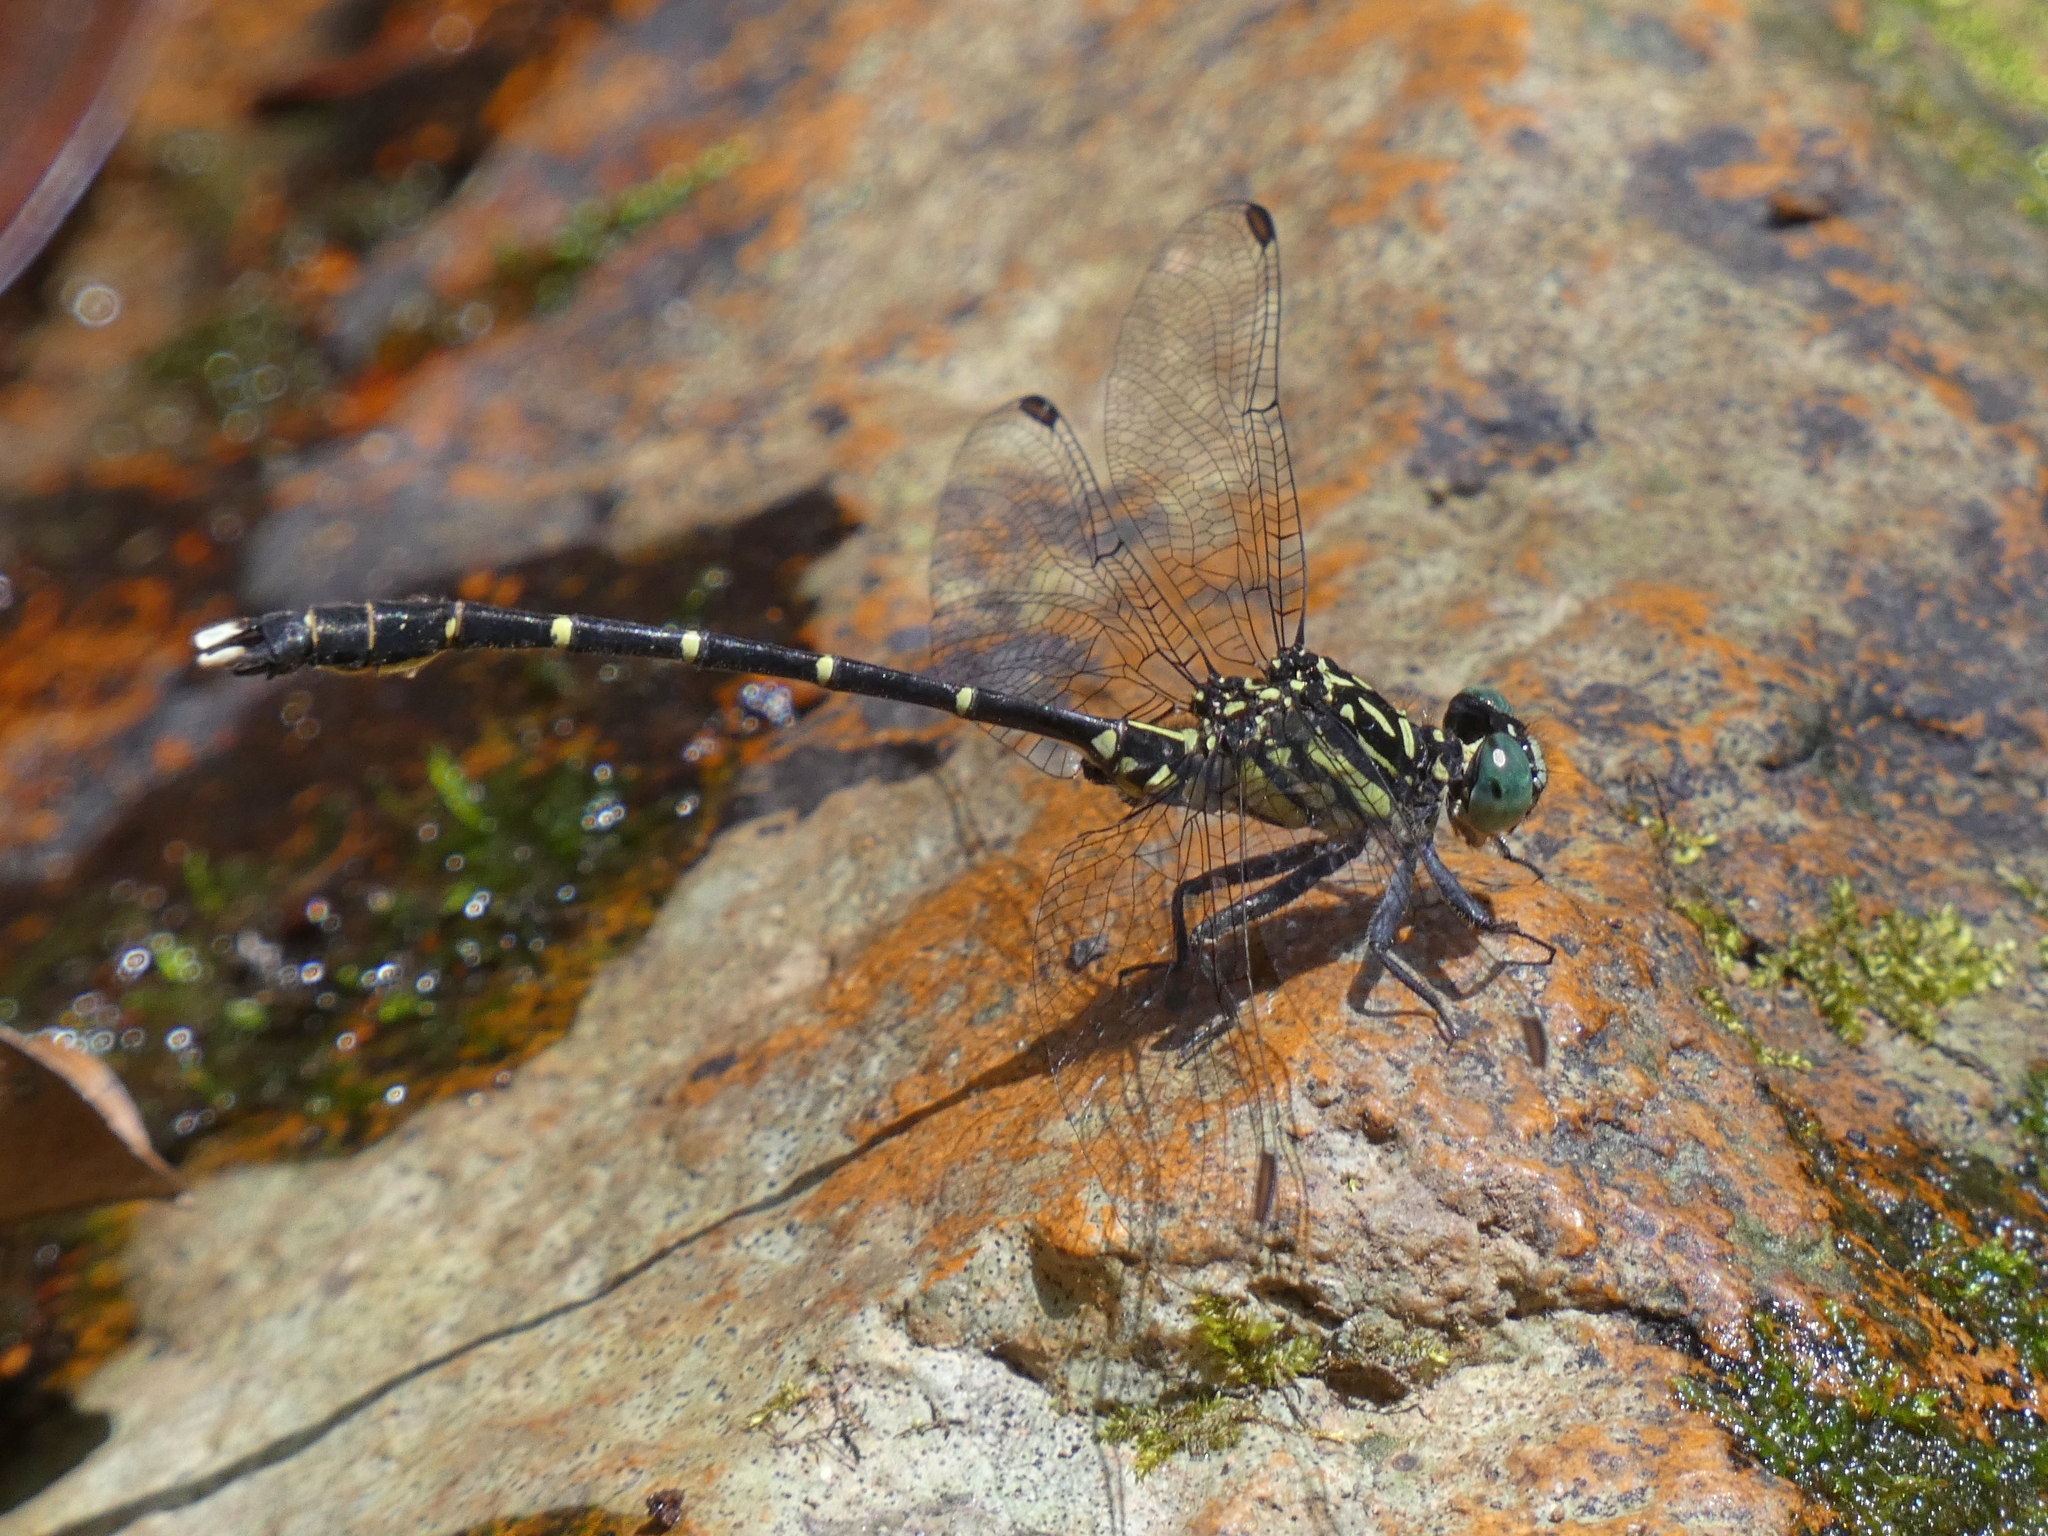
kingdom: Animalia
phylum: Arthropoda
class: Insecta
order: Odonata
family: Gomphidae
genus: Hemigomphus
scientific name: Hemigomphus theischingeri
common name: Rainforest vicetail
